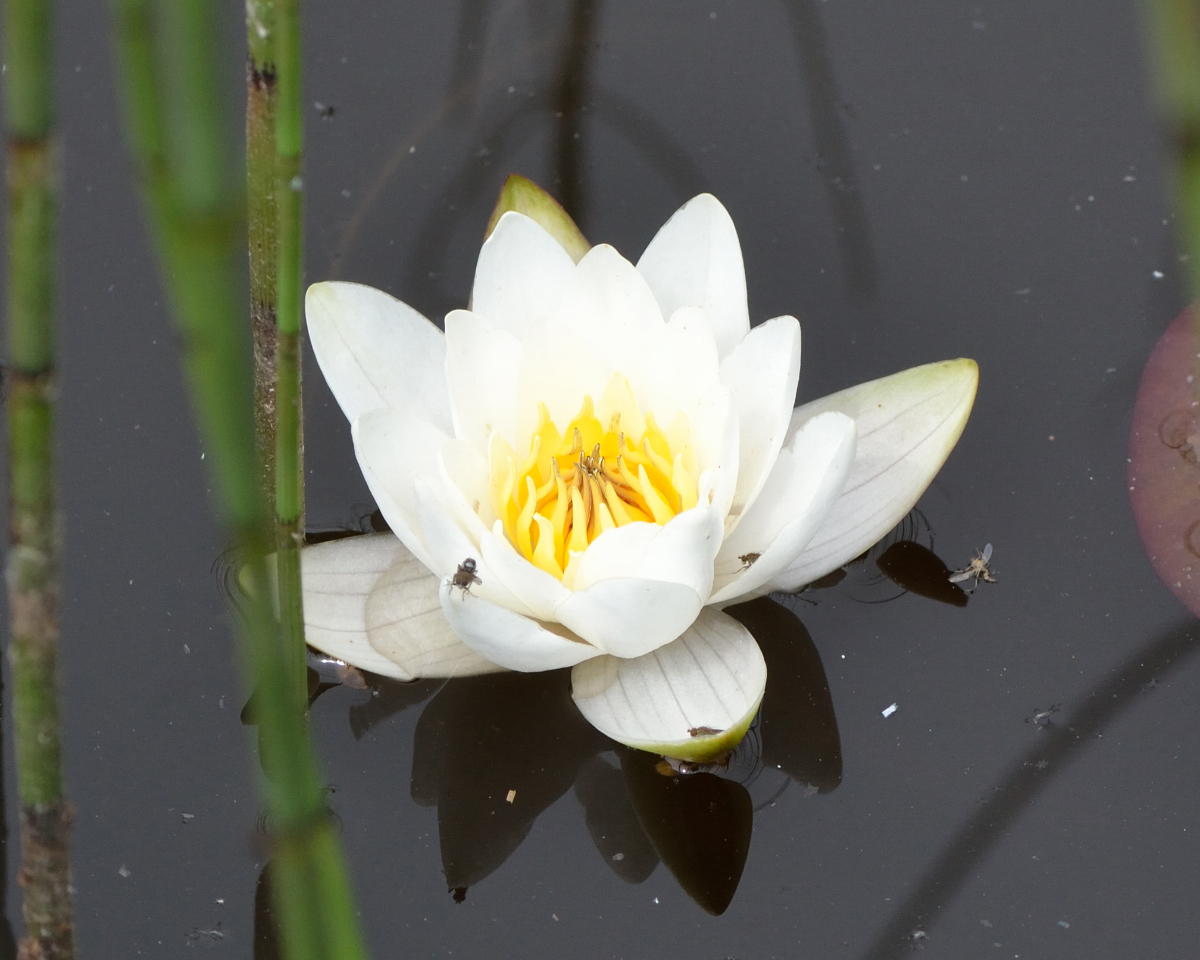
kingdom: Plantae
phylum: Tracheophyta
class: Magnoliopsida
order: Nymphaeales
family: Nymphaeaceae
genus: Nymphaea
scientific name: Nymphaea candida
